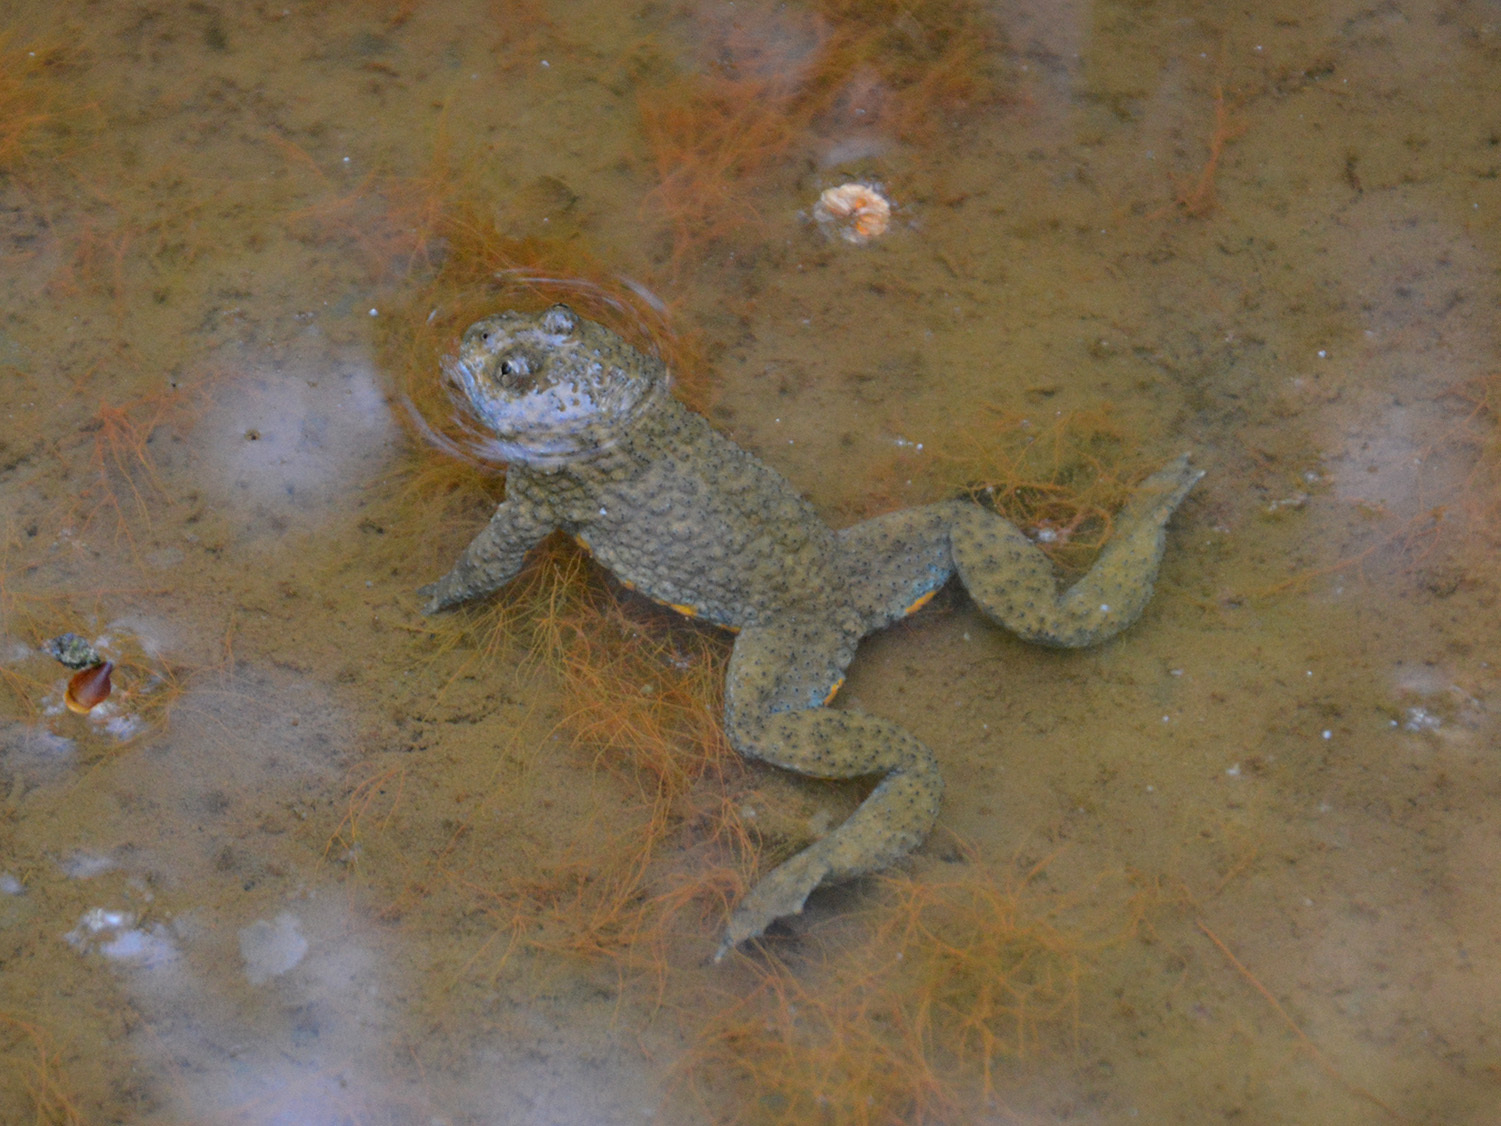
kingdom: Animalia
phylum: Chordata
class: Amphibia
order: Anura
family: Bombinatoridae
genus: Bombina
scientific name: Bombina variegata
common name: Yellow-bellied toad
